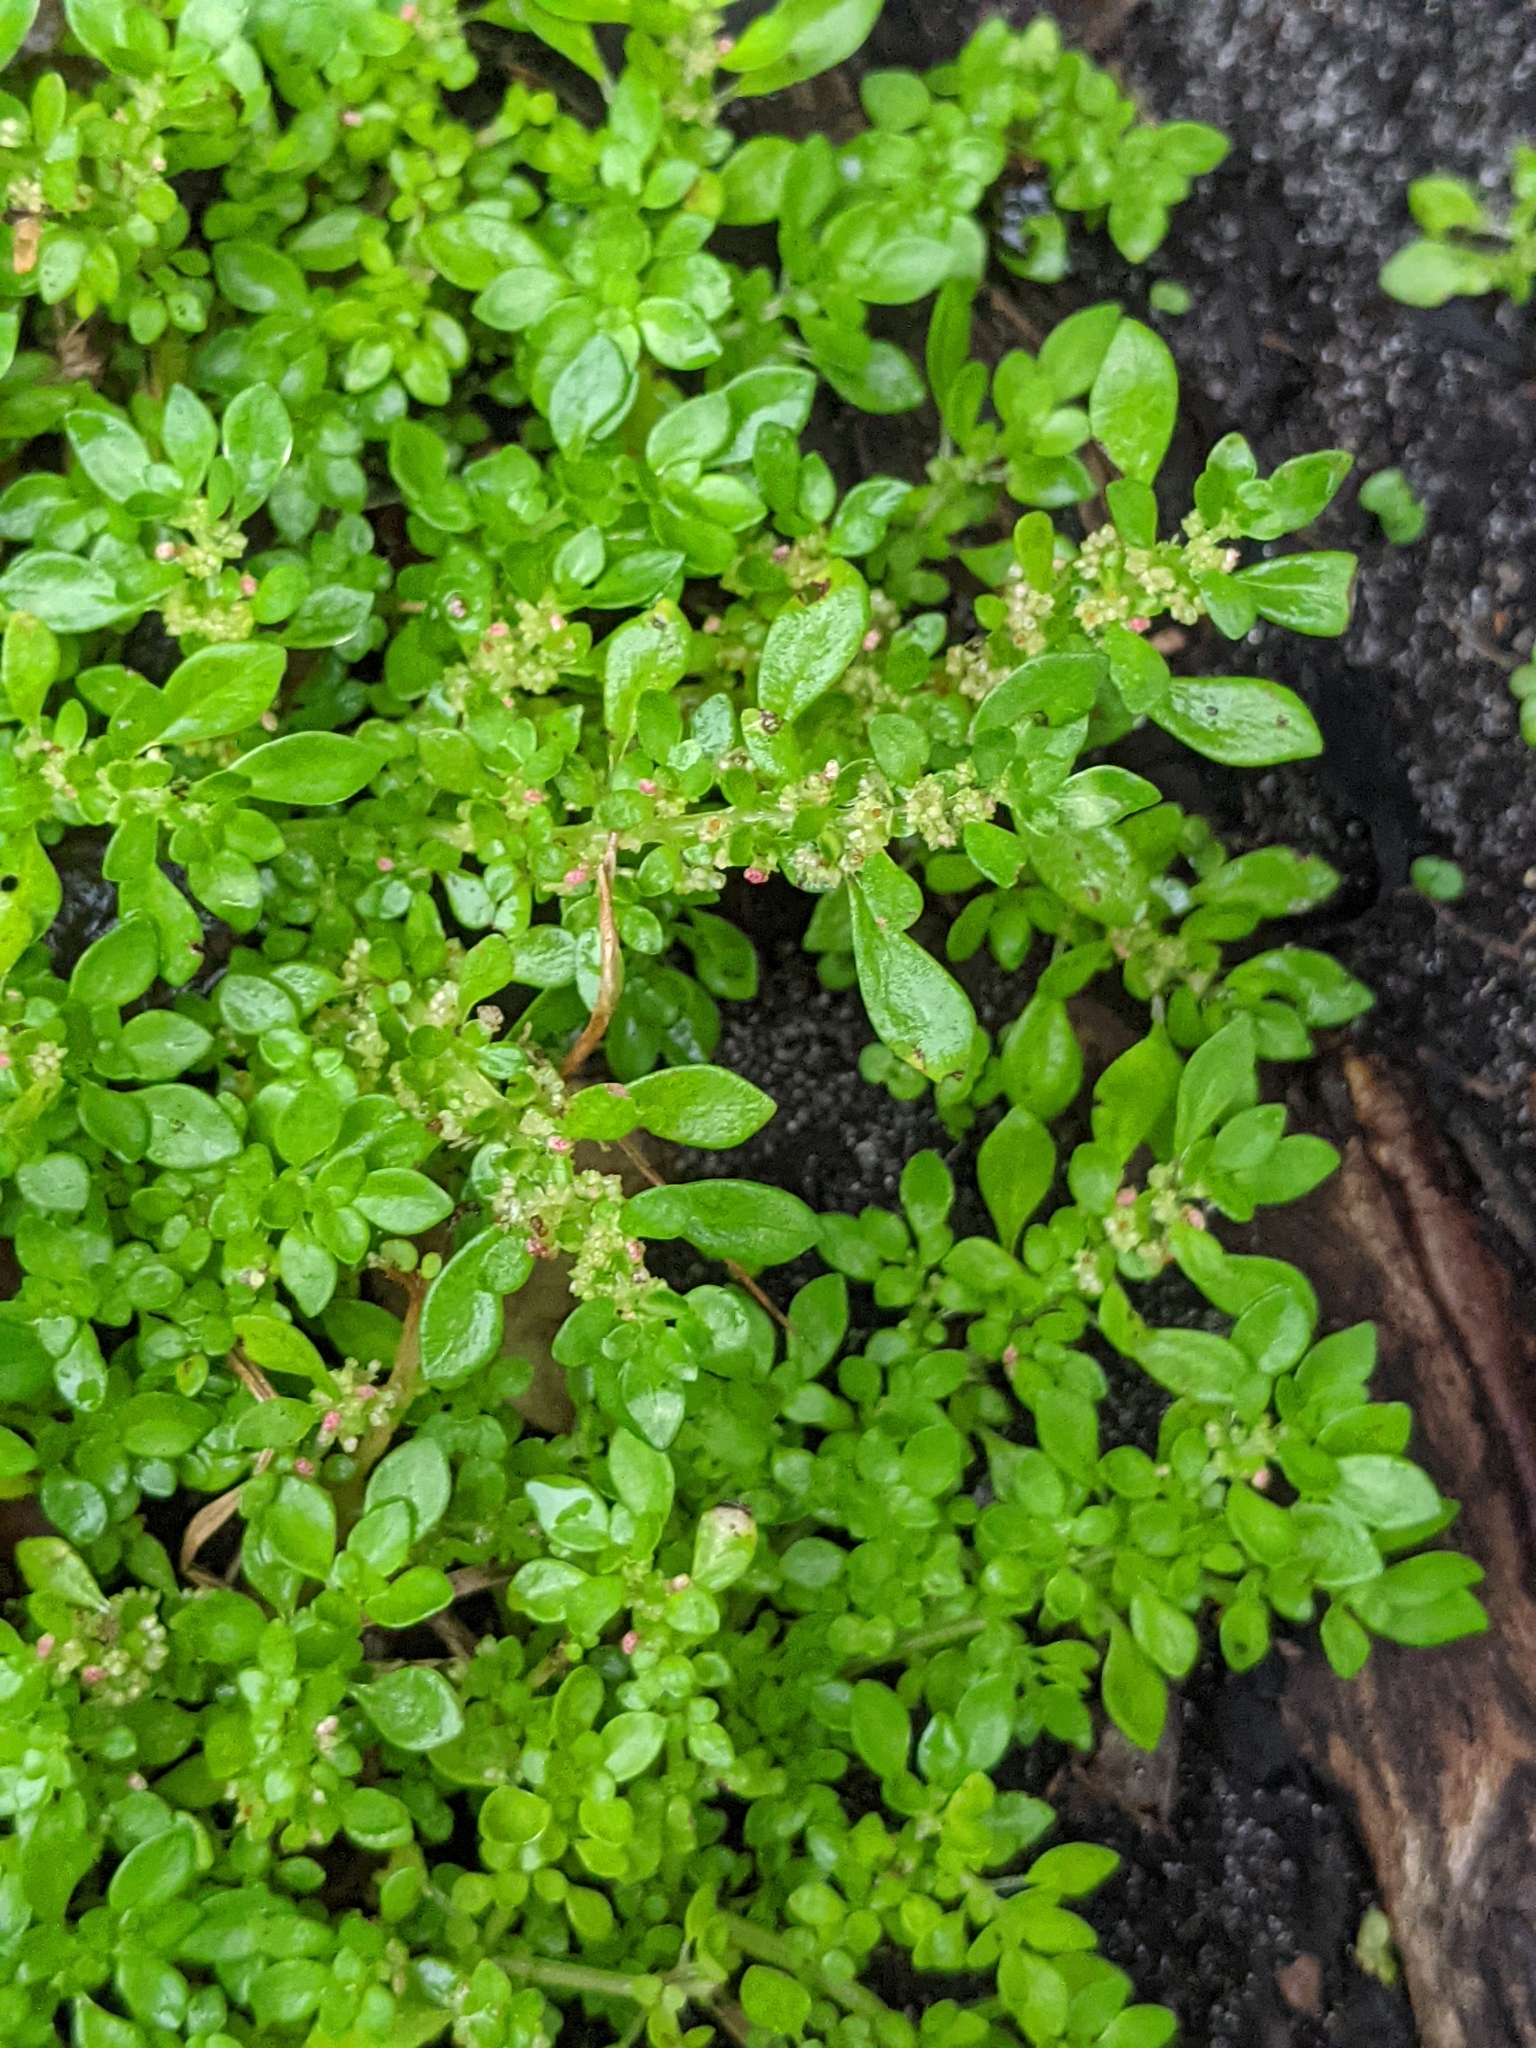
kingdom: Plantae
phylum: Tracheophyta
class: Magnoliopsida
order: Rosales
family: Urticaceae
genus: Pilea
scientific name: Pilea microphylla
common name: Artillery-plant
